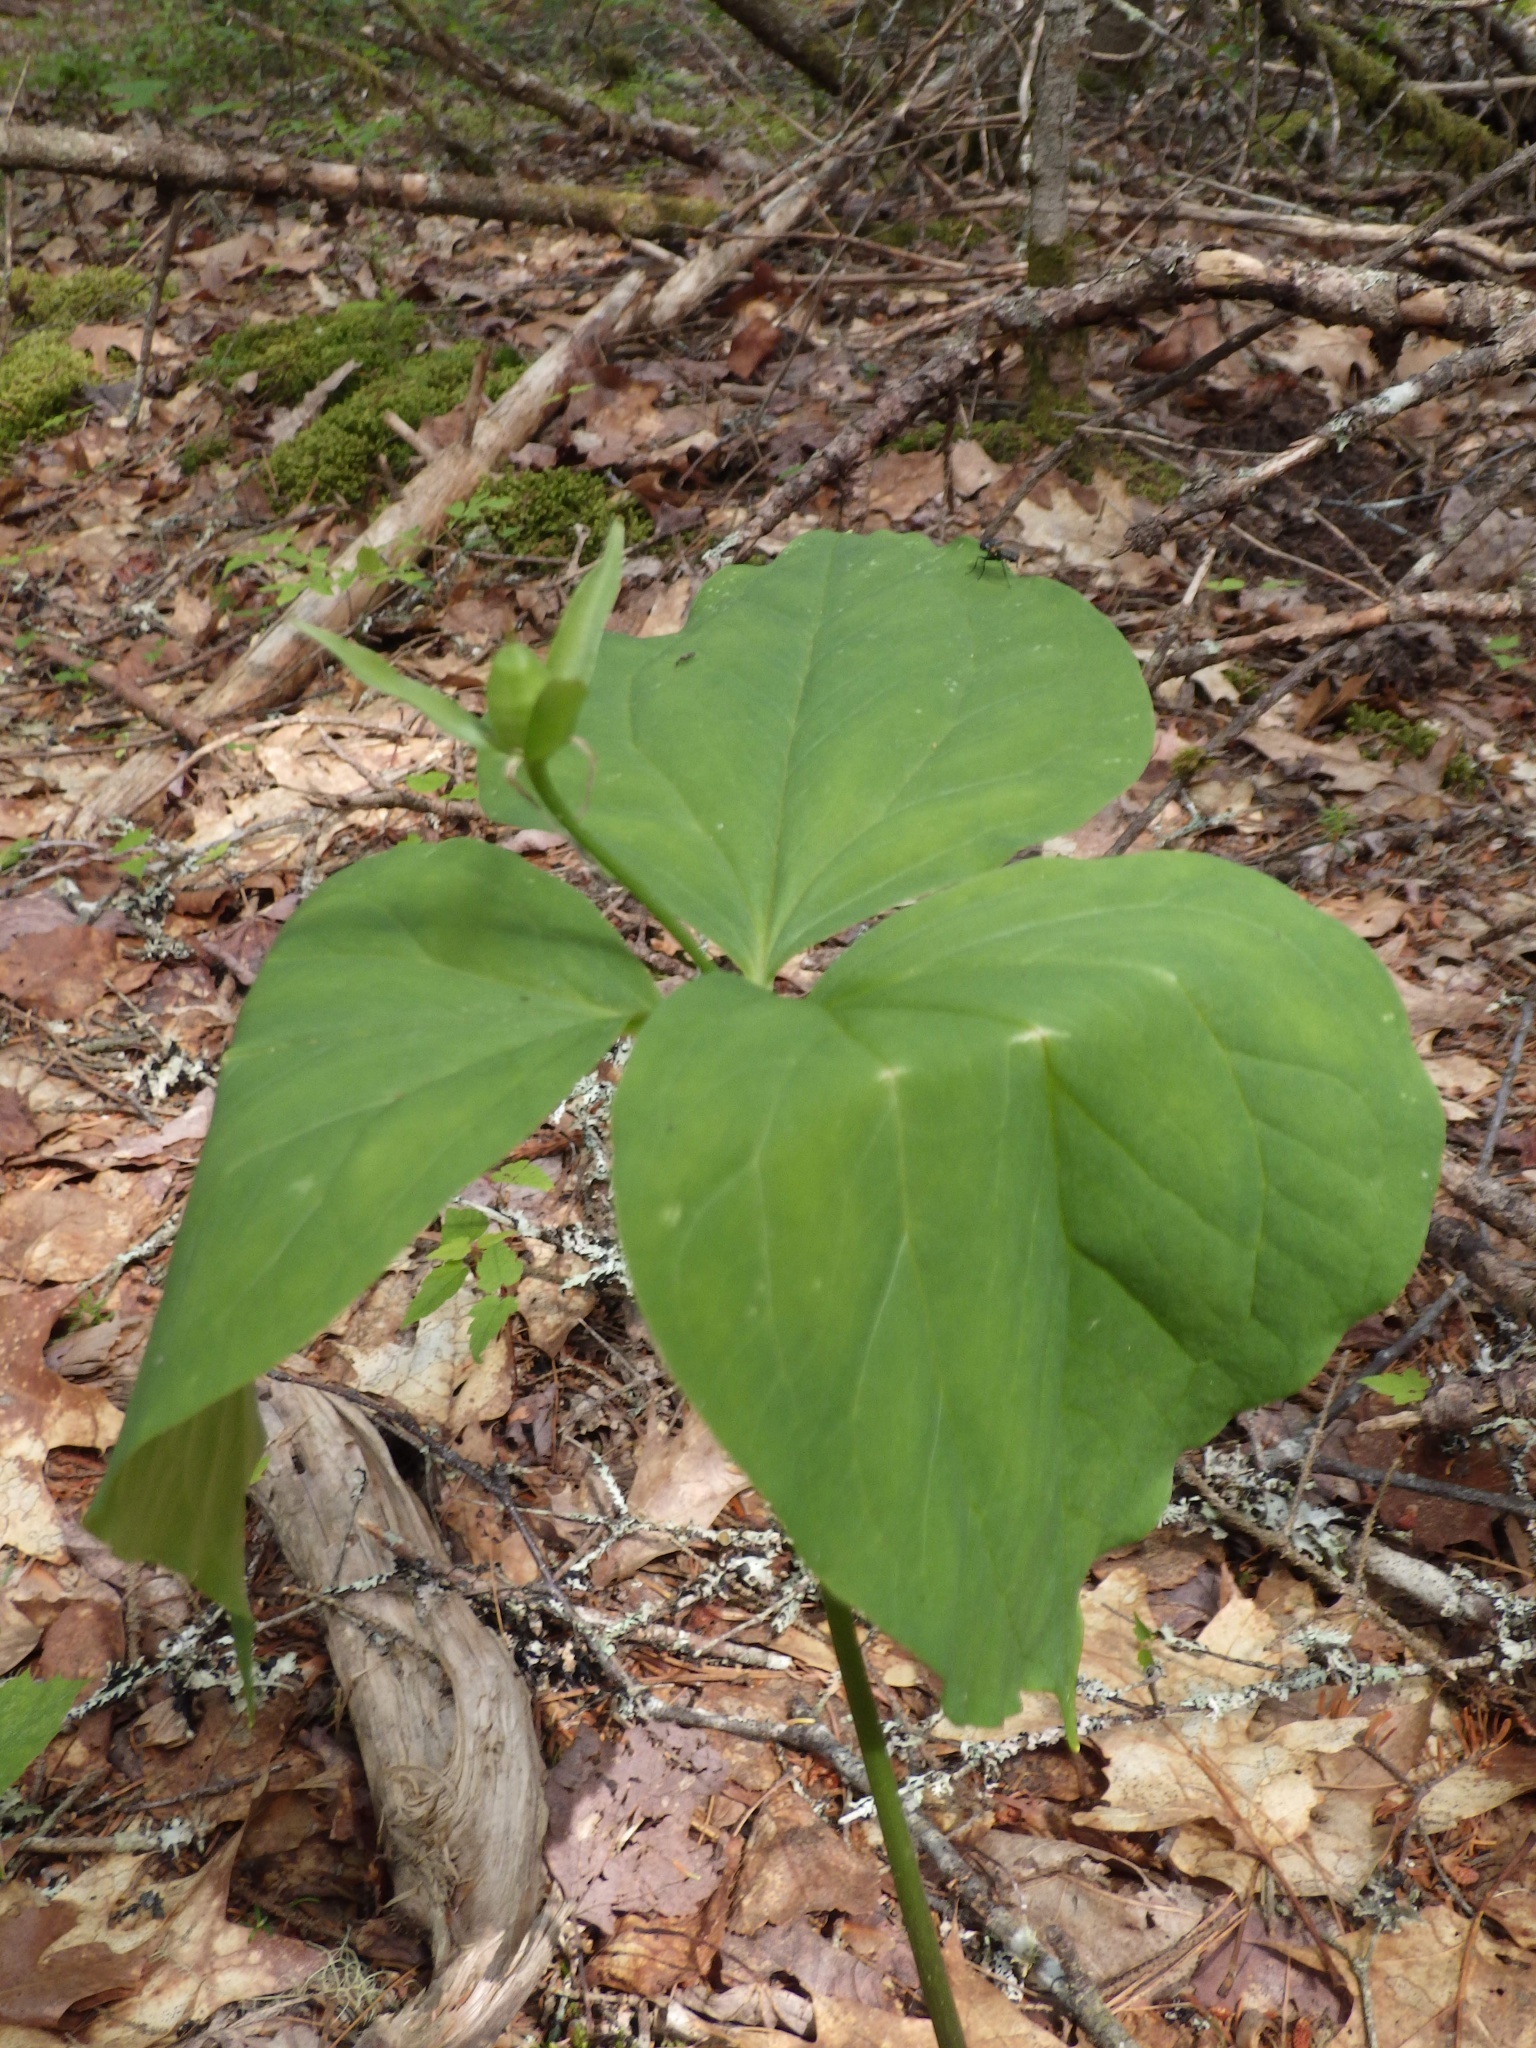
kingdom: Plantae
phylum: Tracheophyta
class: Liliopsida
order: Liliales
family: Melanthiaceae
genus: Trillium
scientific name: Trillium undulatum
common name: Paint trillium
